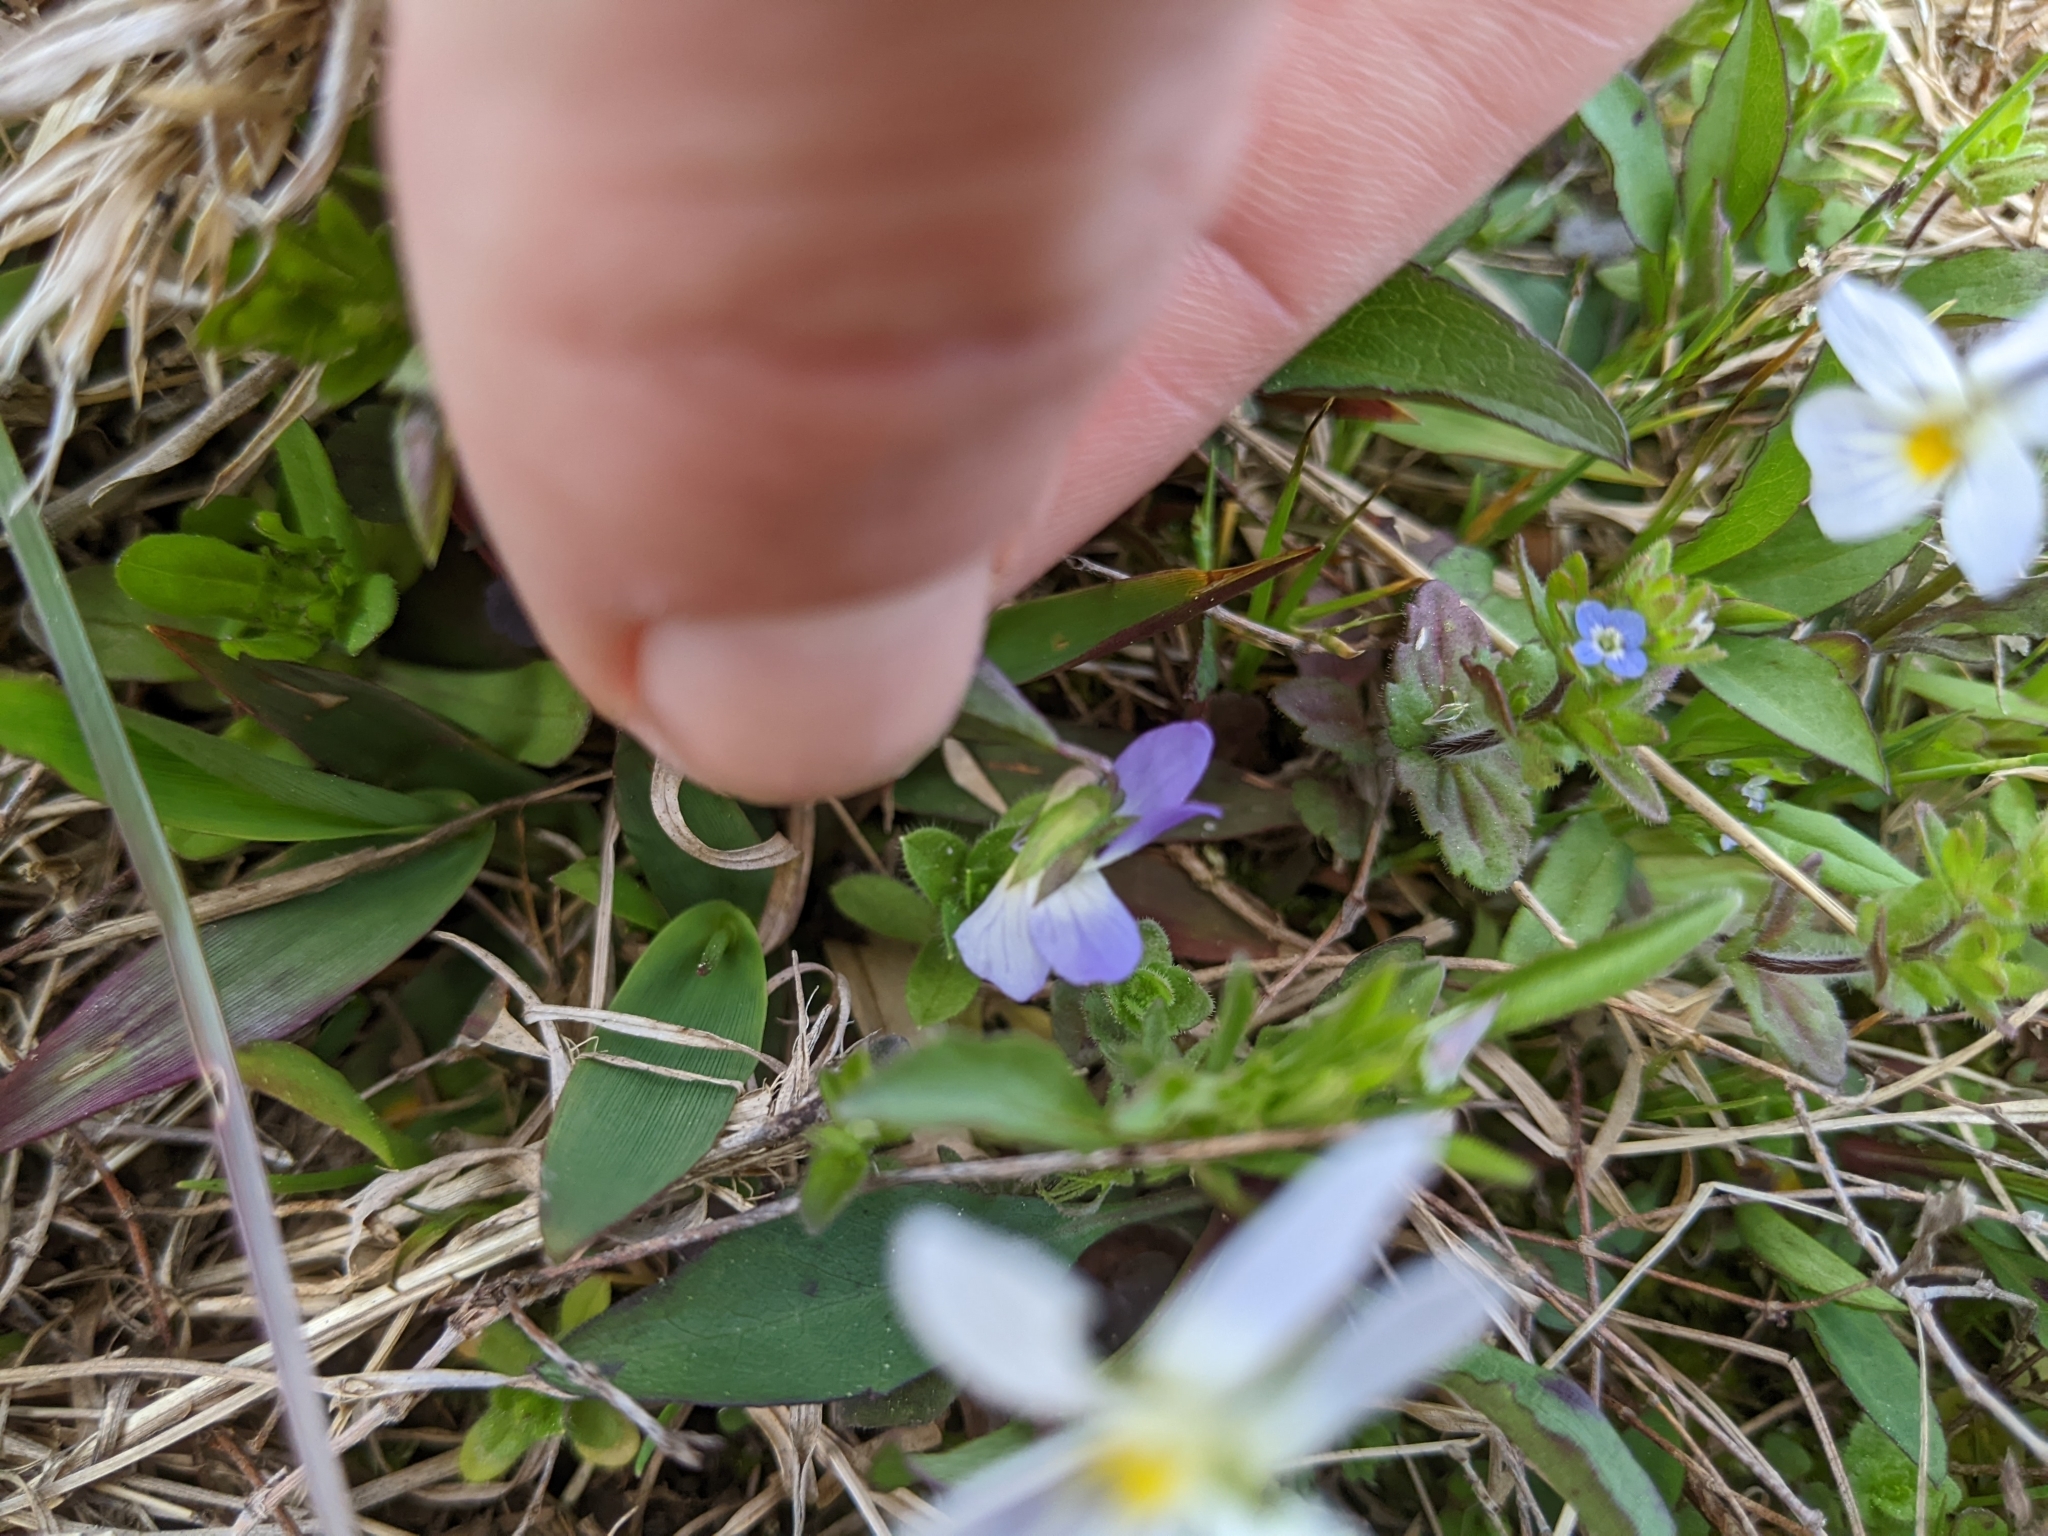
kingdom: Plantae
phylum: Tracheophyta
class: Magnoliopsida
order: Malpighiales
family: Violaceae
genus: Viola
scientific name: Viola rafinesquei
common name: American field pansy
